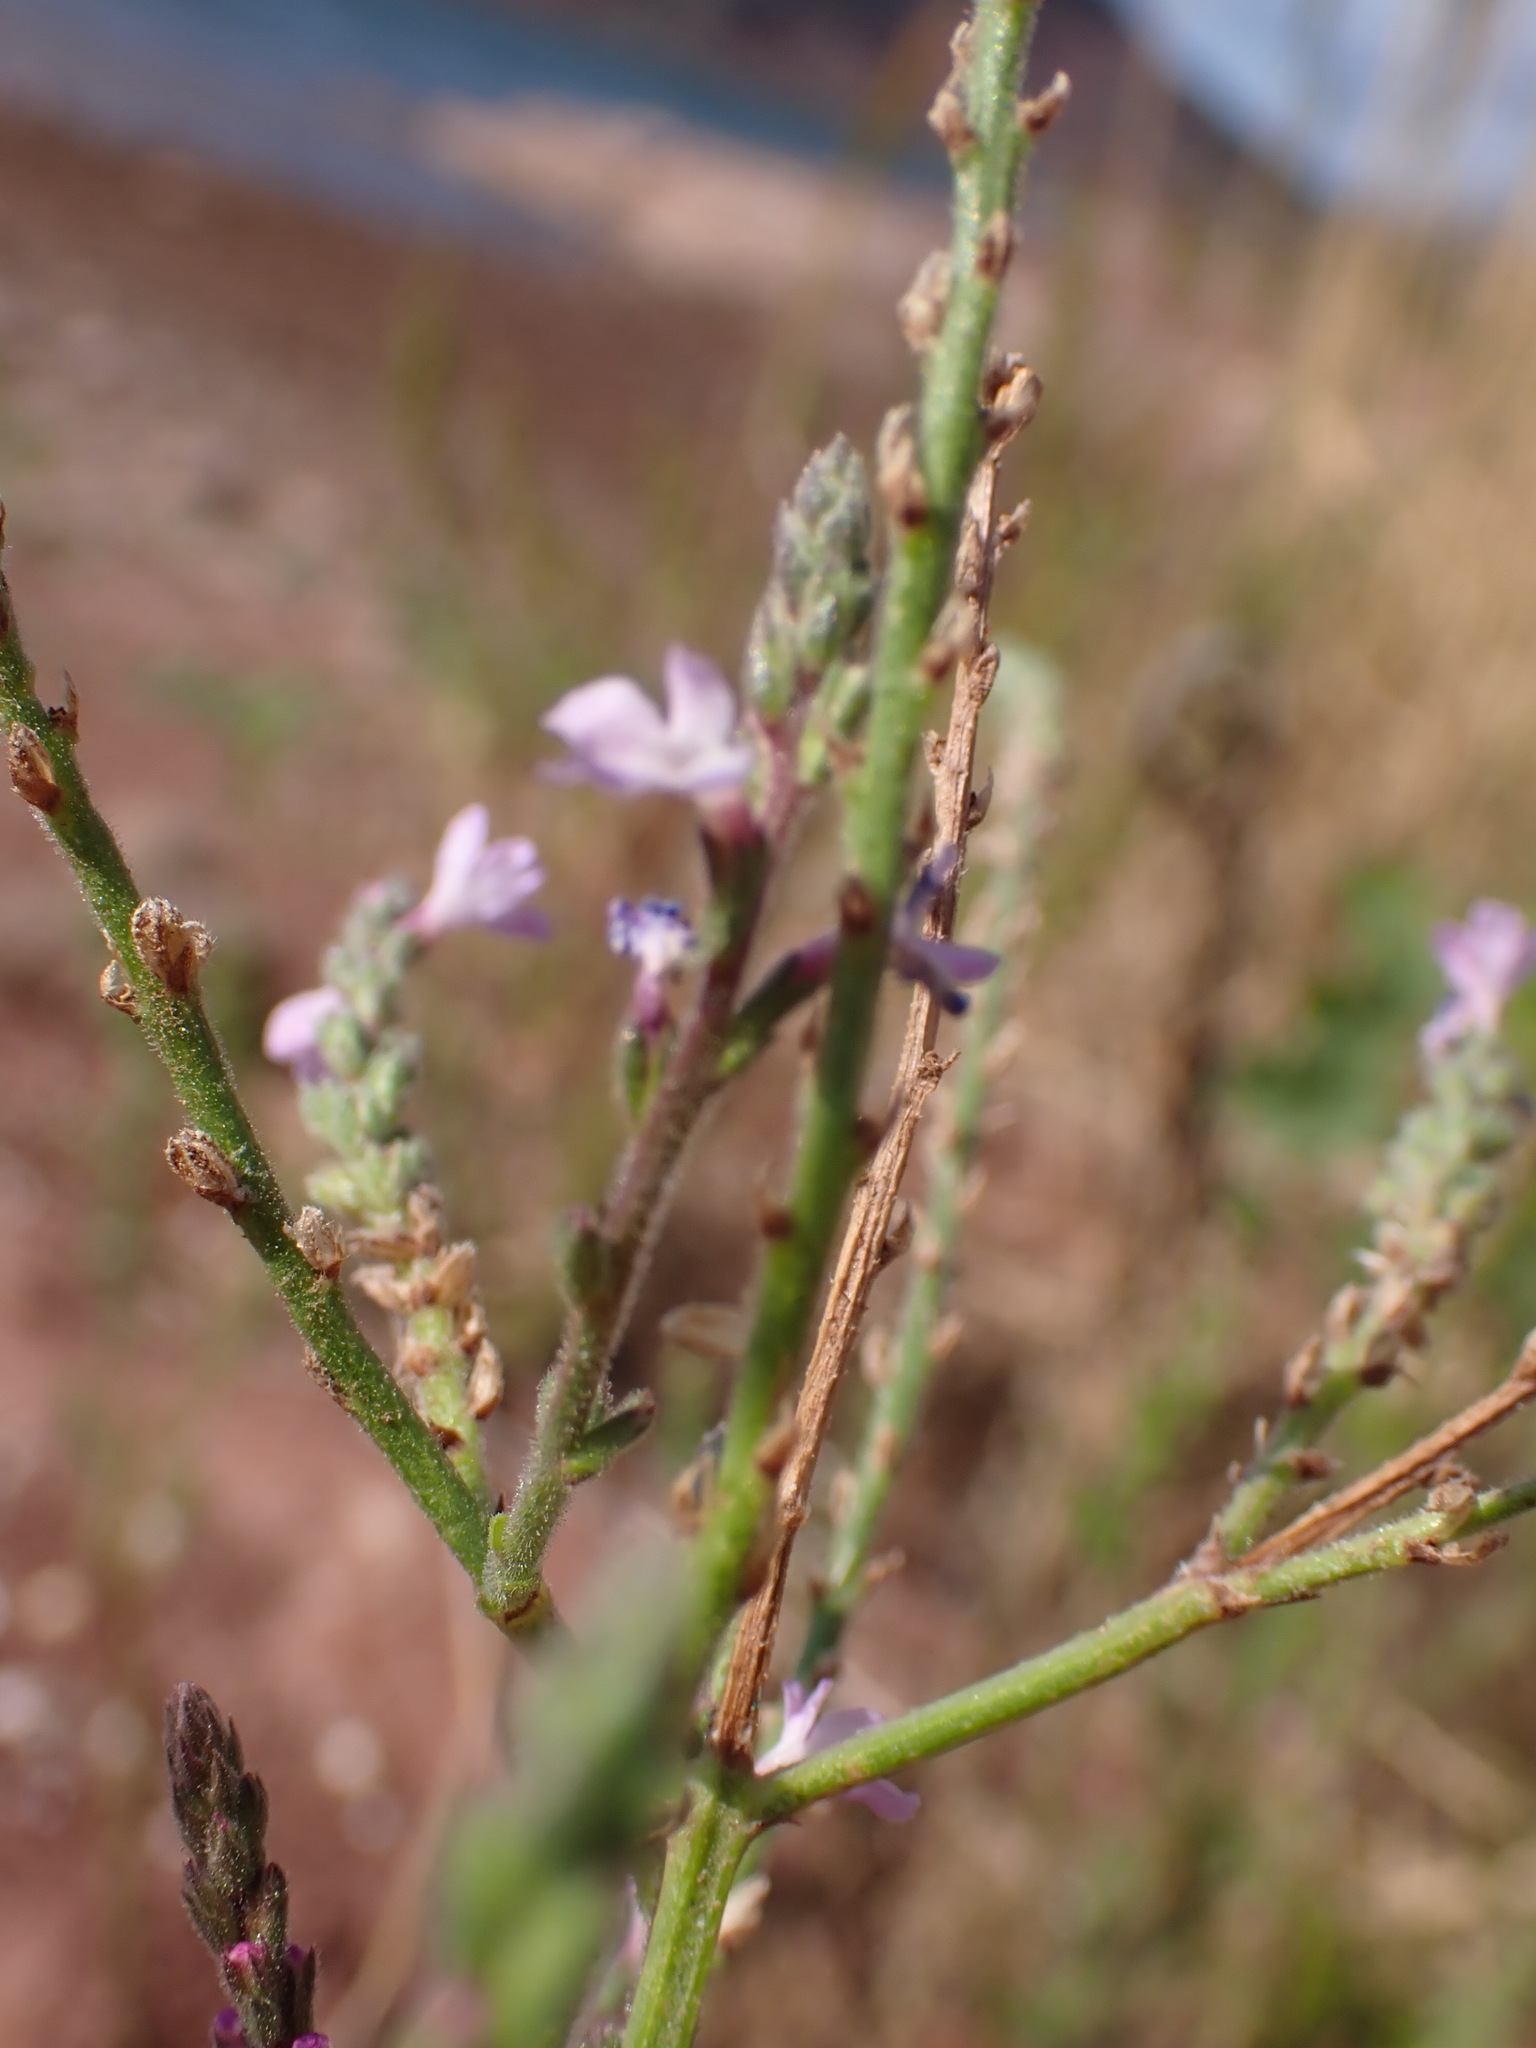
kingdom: Plantae
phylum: Tracheophyta
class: Magnoliopsida
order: Lamiales
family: Verbenaceae
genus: Verbena
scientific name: Verbena officinalis
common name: Vervain
